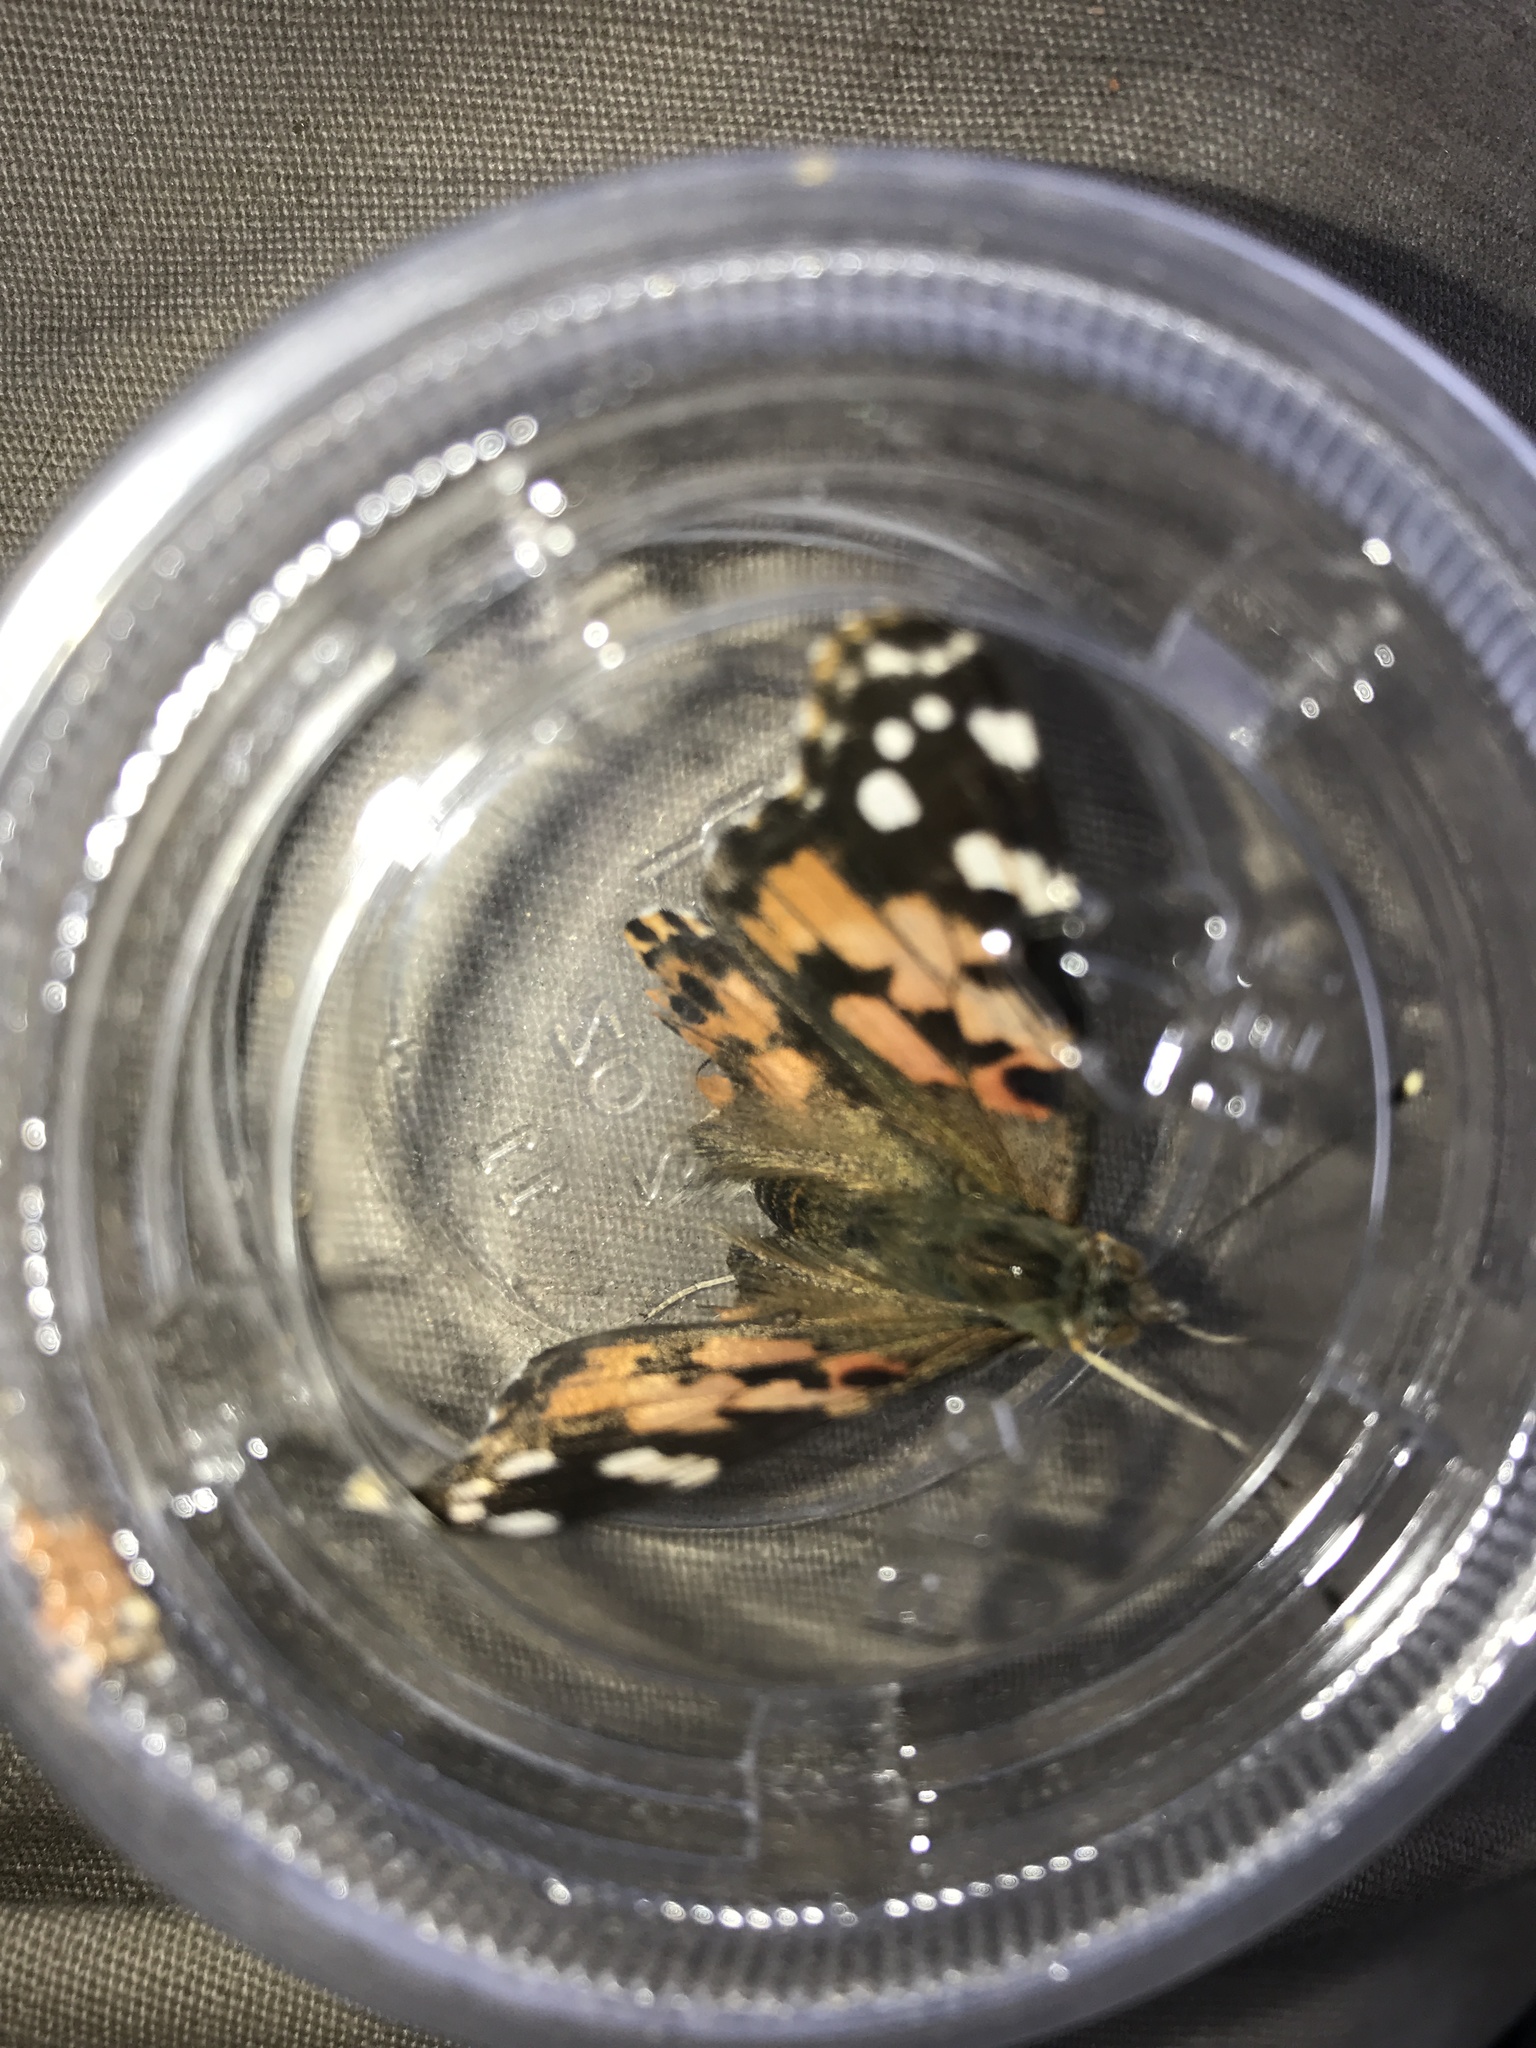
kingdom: Animalia
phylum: Arthropoda
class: Insecta
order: Lepidoptera
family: Nymphalidae
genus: Vanessa
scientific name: Vanessa cardui
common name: Painted lady
